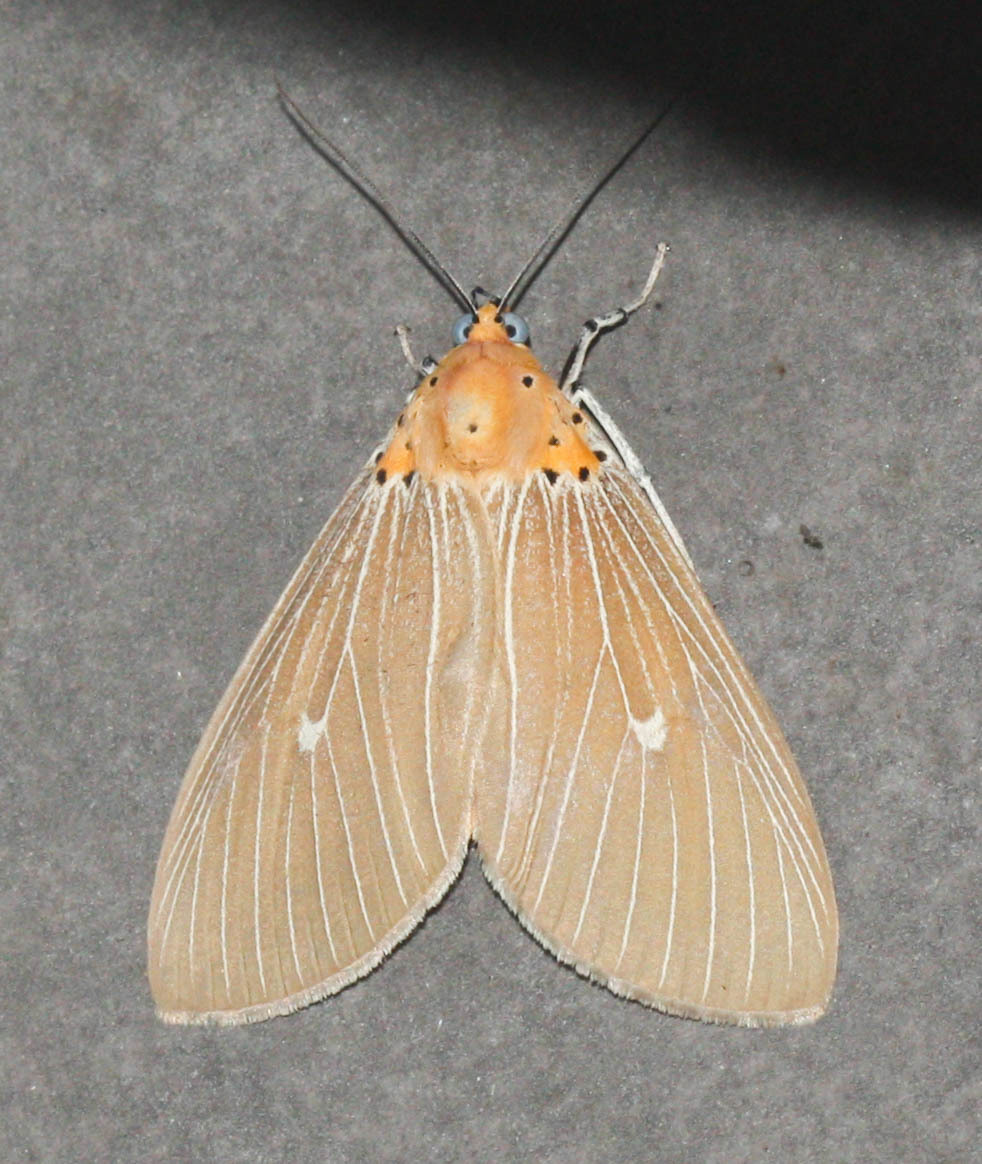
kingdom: Animalia
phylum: Arthropoda
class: Insecta
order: Lepidoptera
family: Erebidae
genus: Asota
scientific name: Asota caricae
